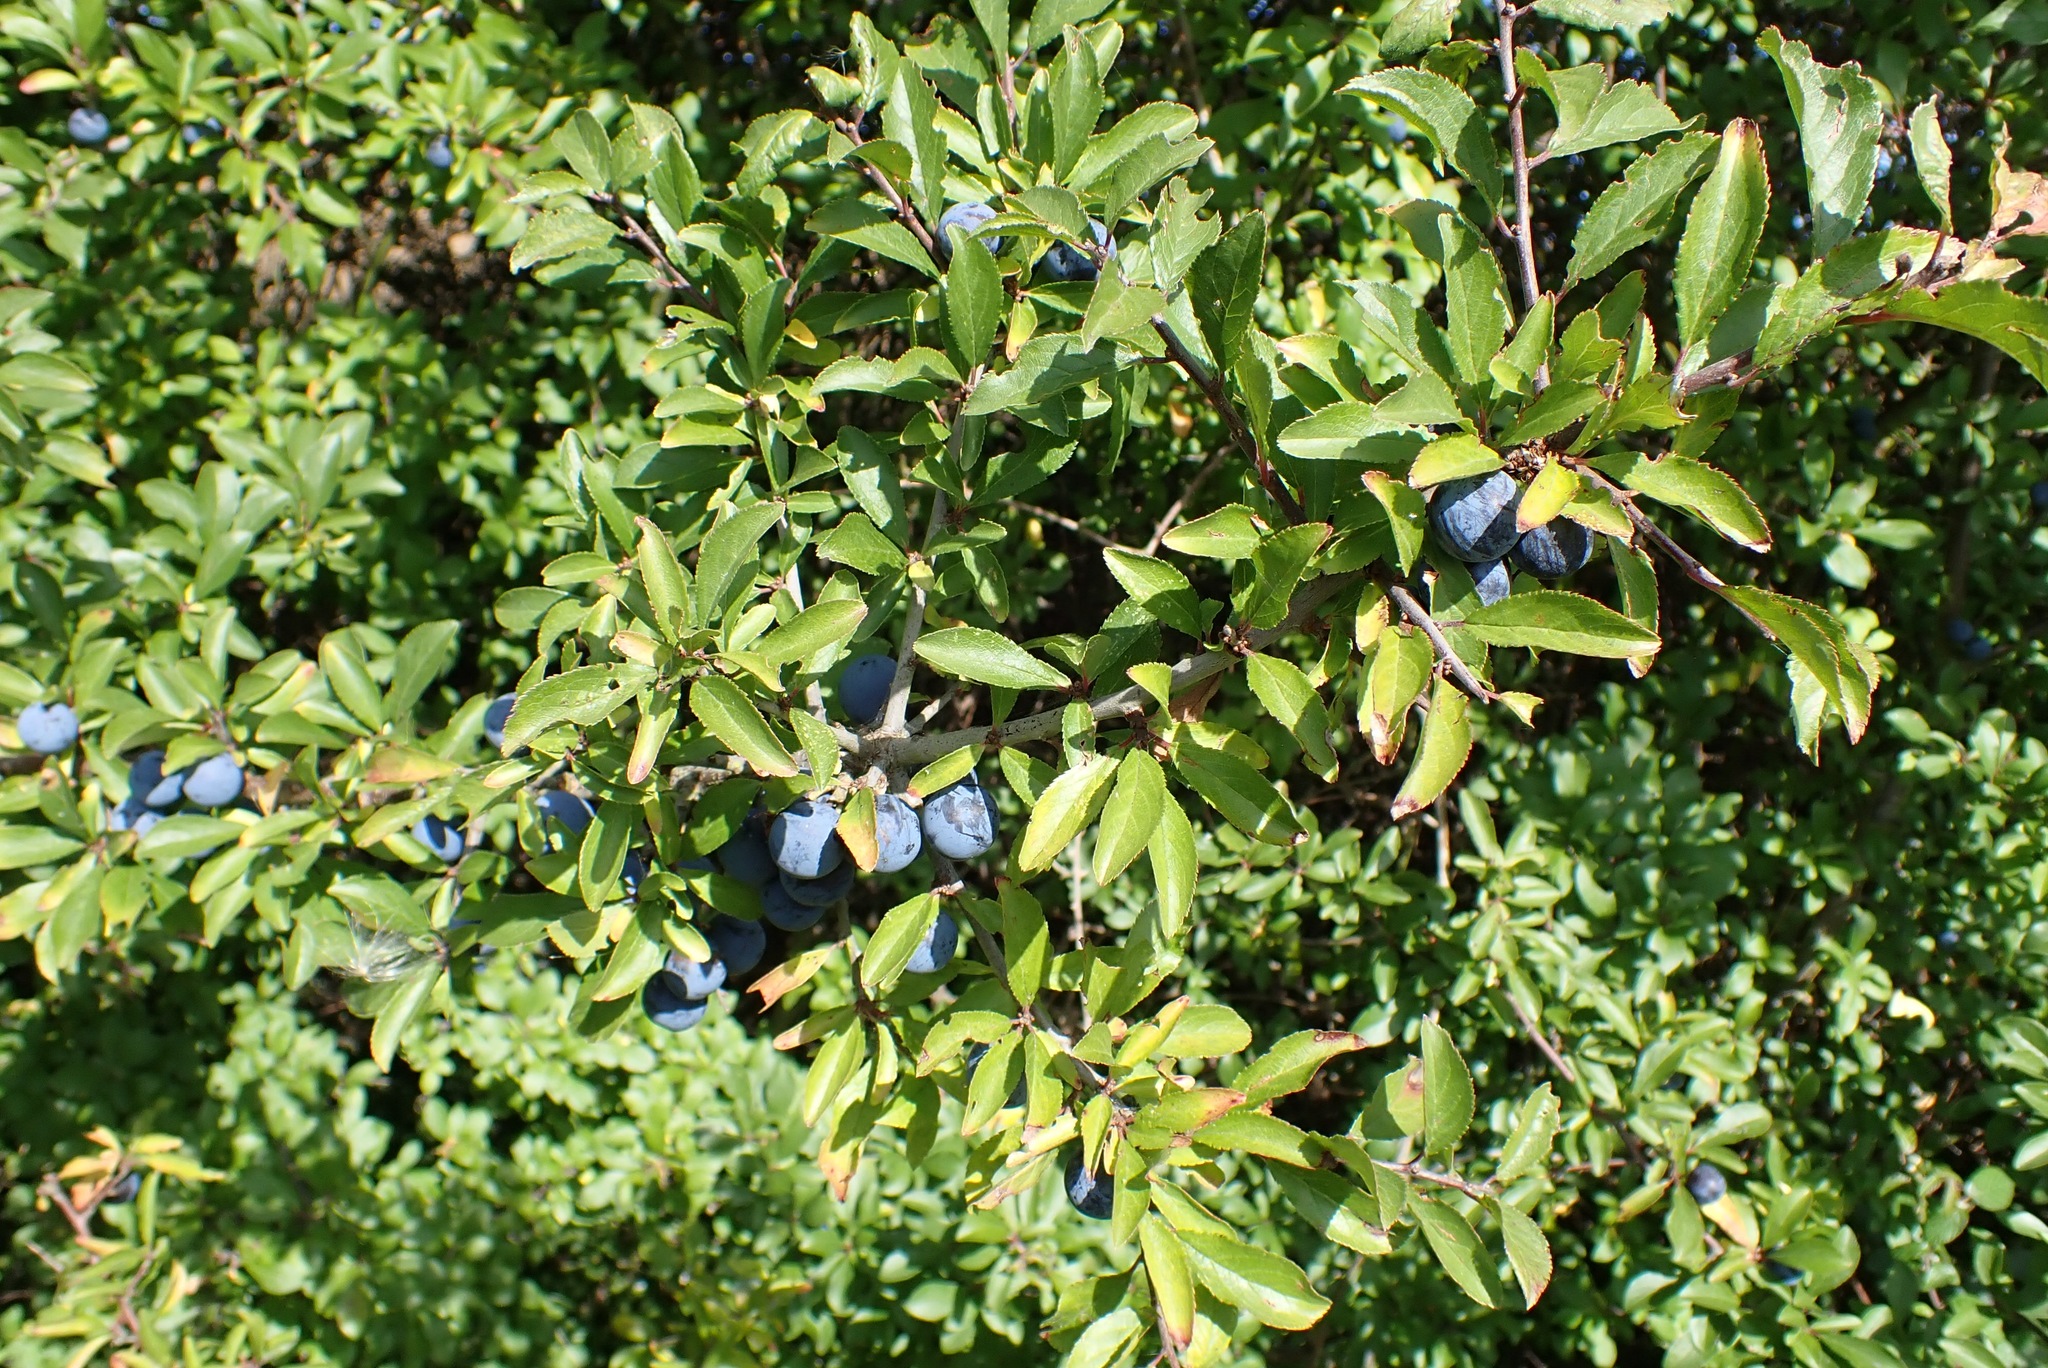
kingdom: Plantae
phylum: Tracheophyta
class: Magnoliopsida
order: Rosales
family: Rosaceae
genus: Prunus
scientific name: Prunus spinosa
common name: Blackthorn
